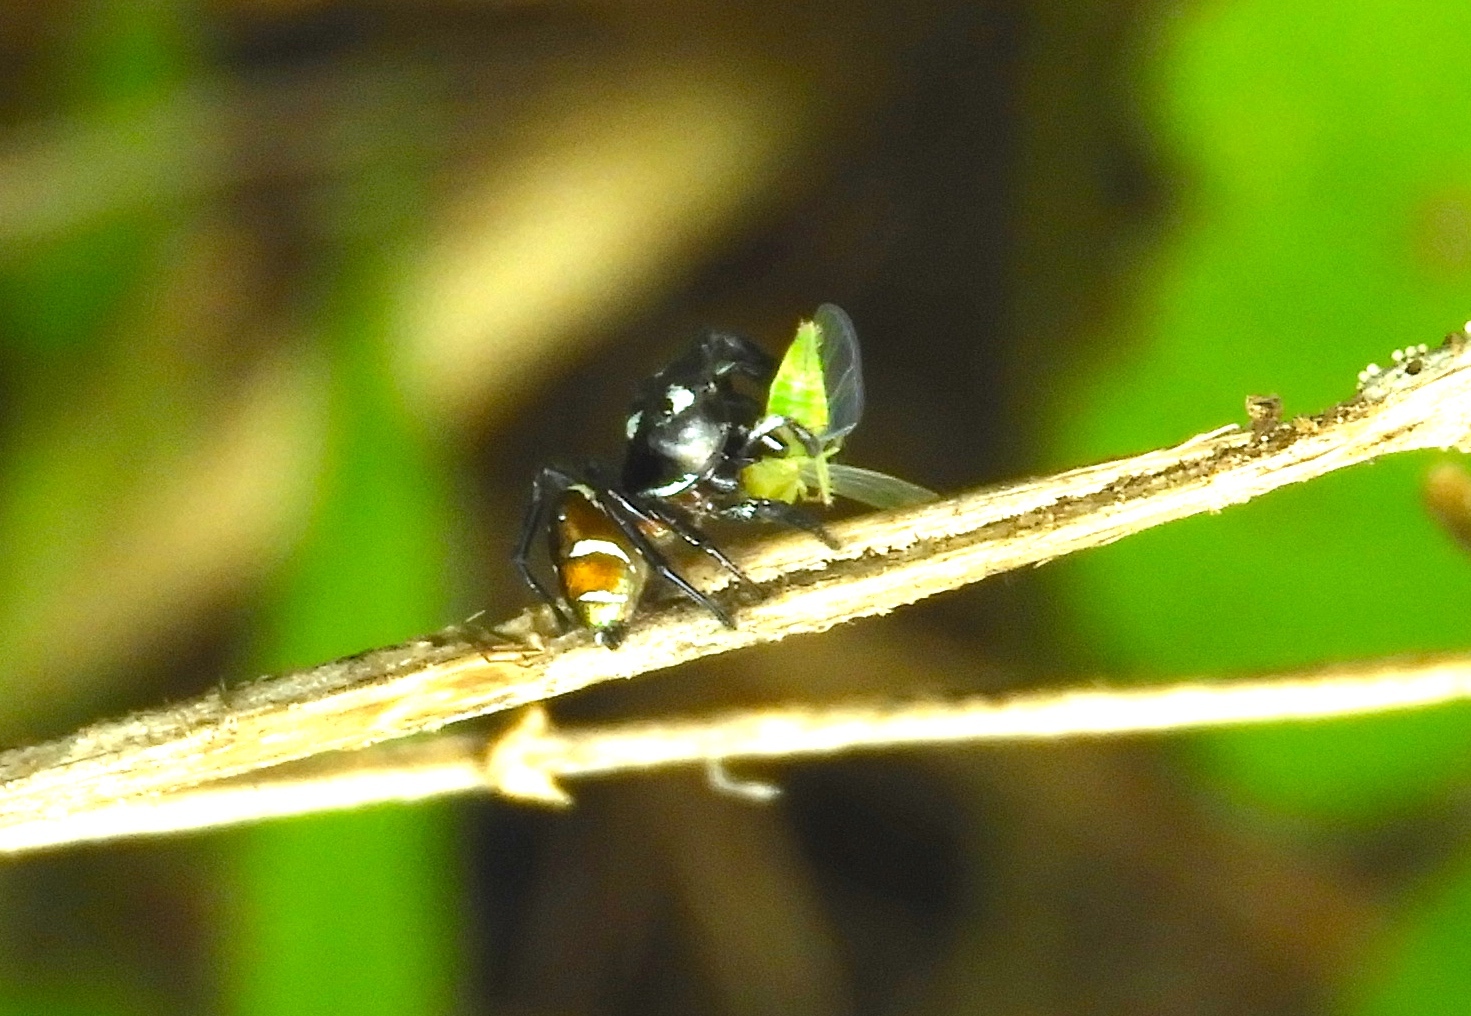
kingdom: Animalia
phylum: Arthropoda
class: Arachnida
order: Araneae
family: Salticidae
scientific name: Salticidae
